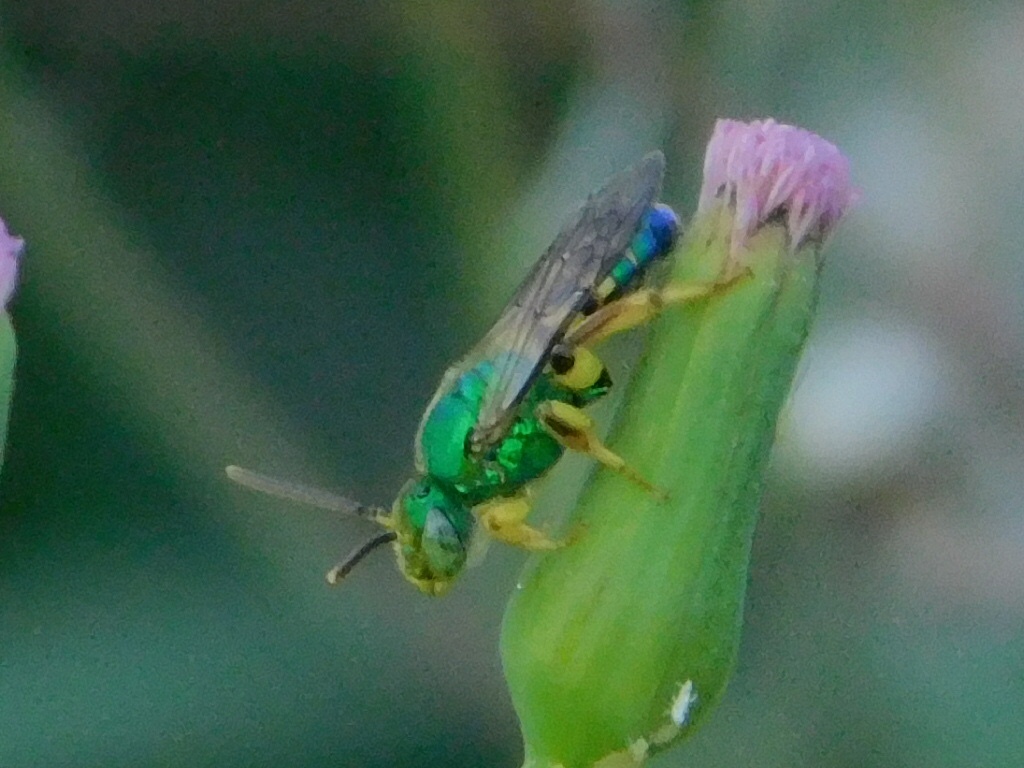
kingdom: Animalia
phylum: Arthropoda
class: Insecta
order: Hymenoptera
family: Halictidae
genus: Agapostemon
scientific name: Agapostemon poeyi
